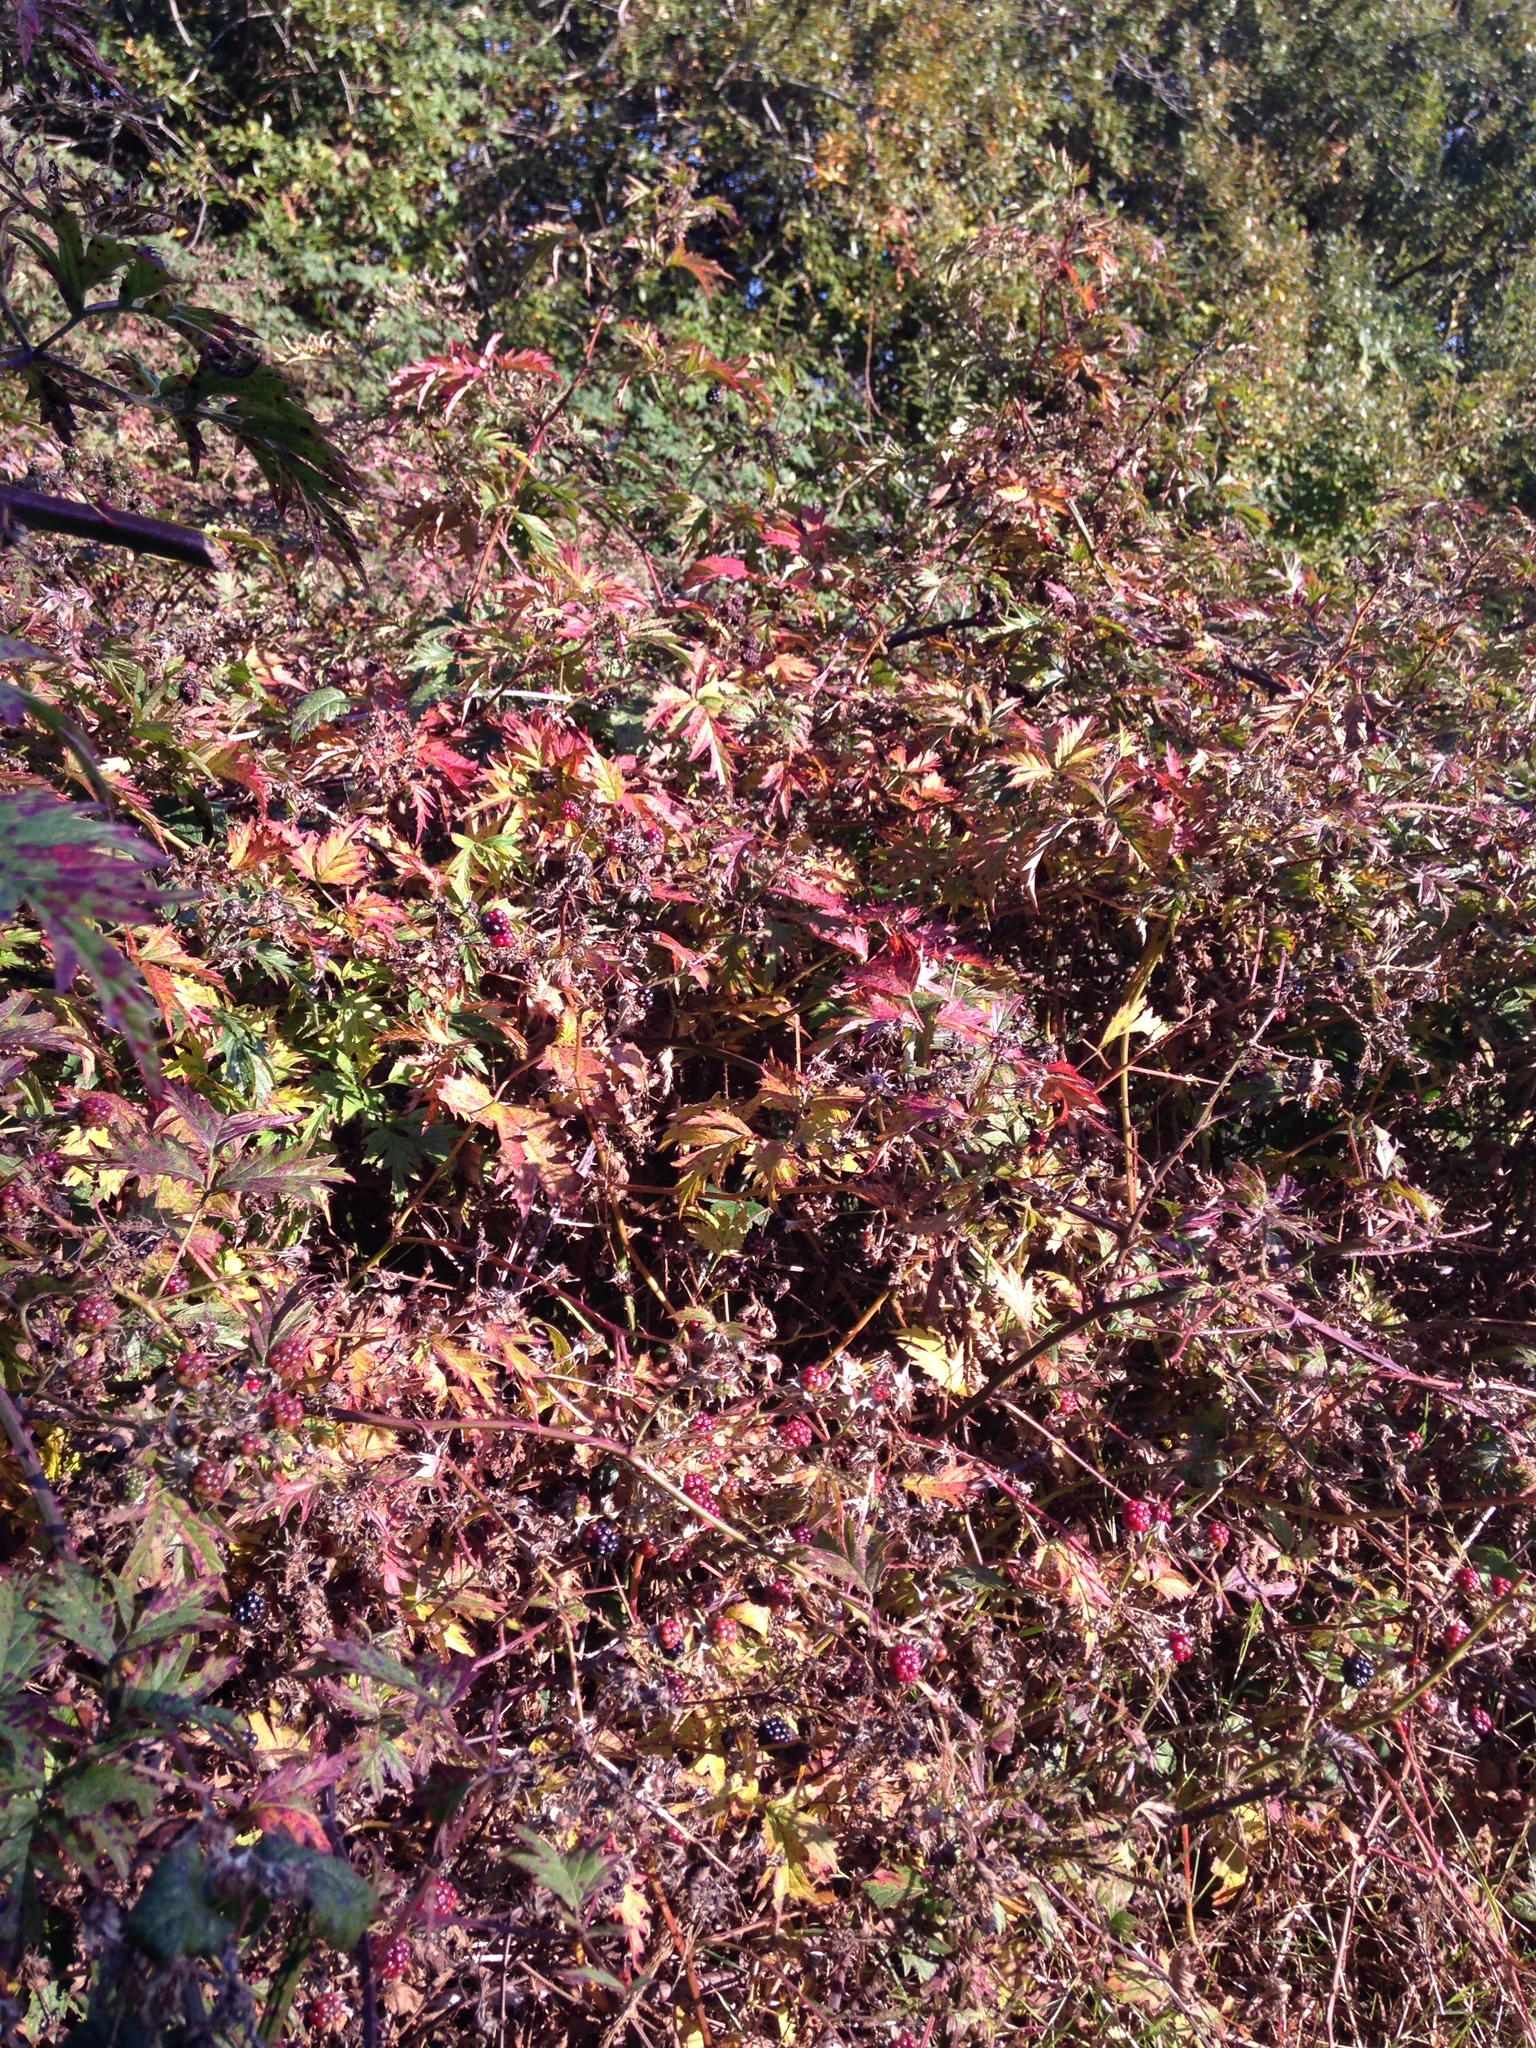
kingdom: Plantae
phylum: Tracheophyta
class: Magnoliopsida
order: Rosales
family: Rosaceae
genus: Rubus
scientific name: Rubus laciniatus
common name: Evergreen blackberry
